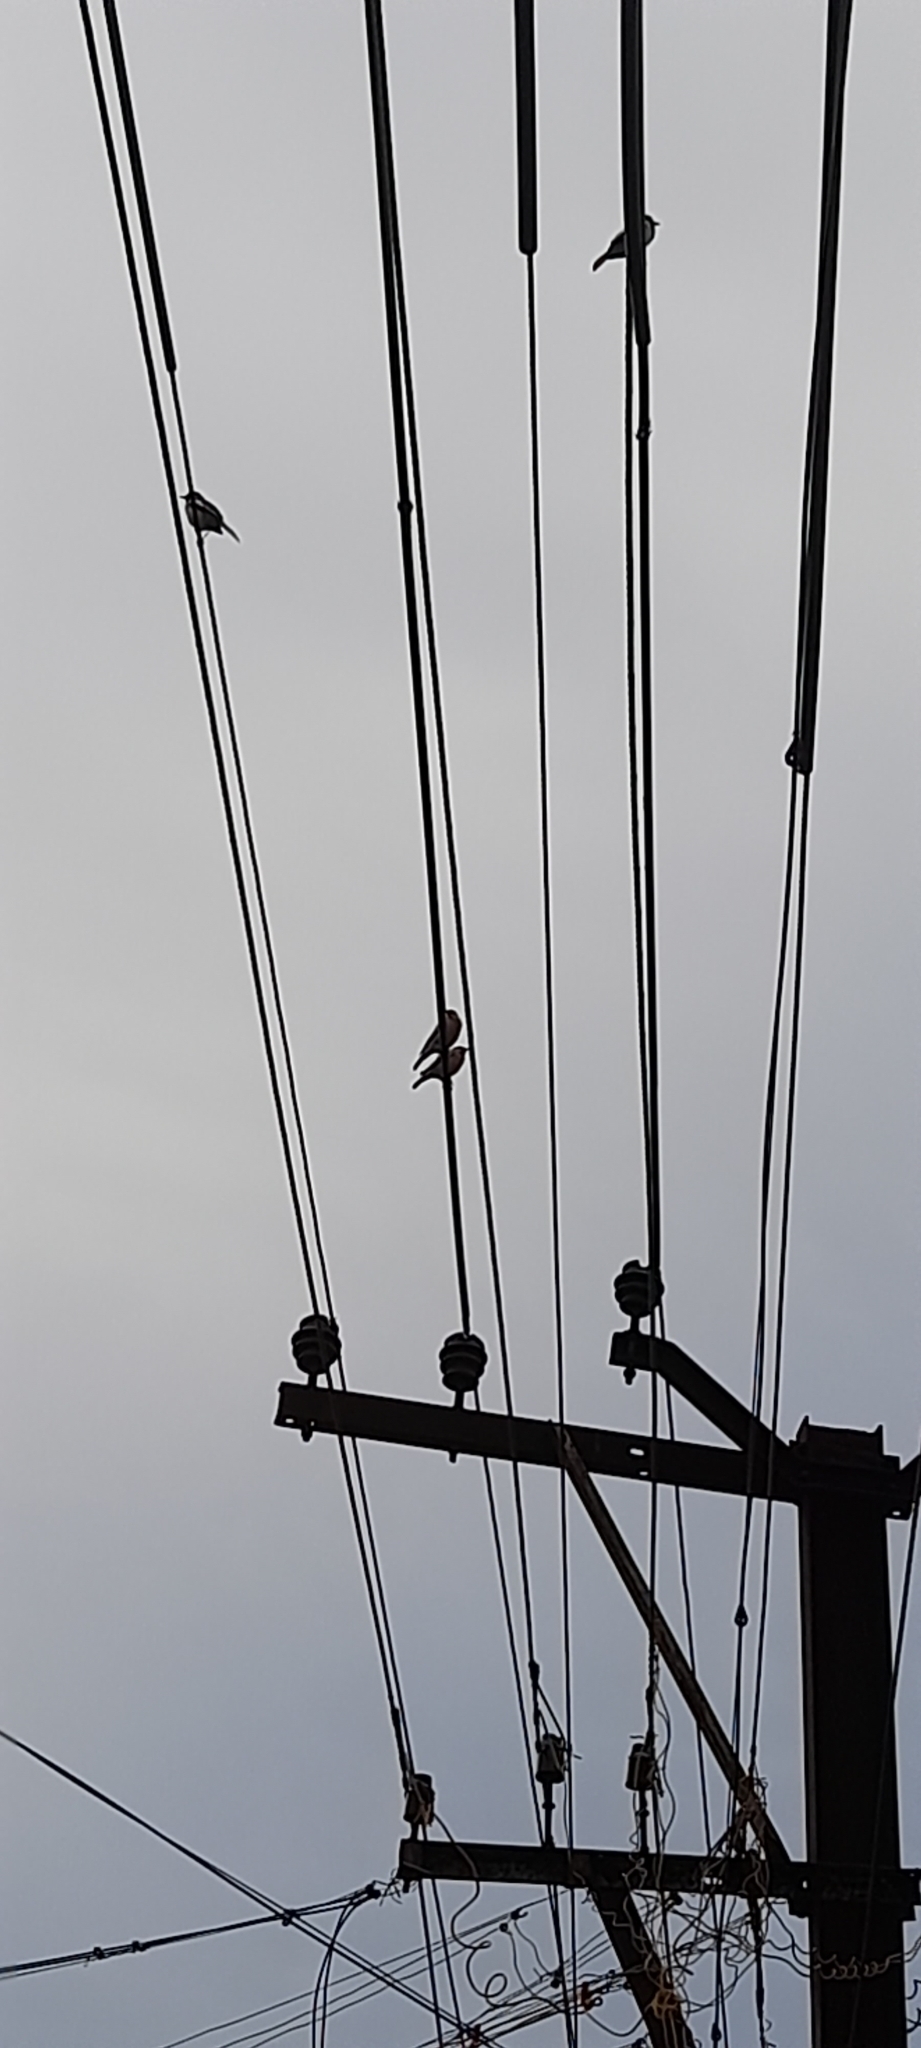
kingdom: Animalia
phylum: Chordata
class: Aves
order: Passeriformes
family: Muscicapidae
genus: Copsychus
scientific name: Copsychus saularis
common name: Oriental magpie-robin
